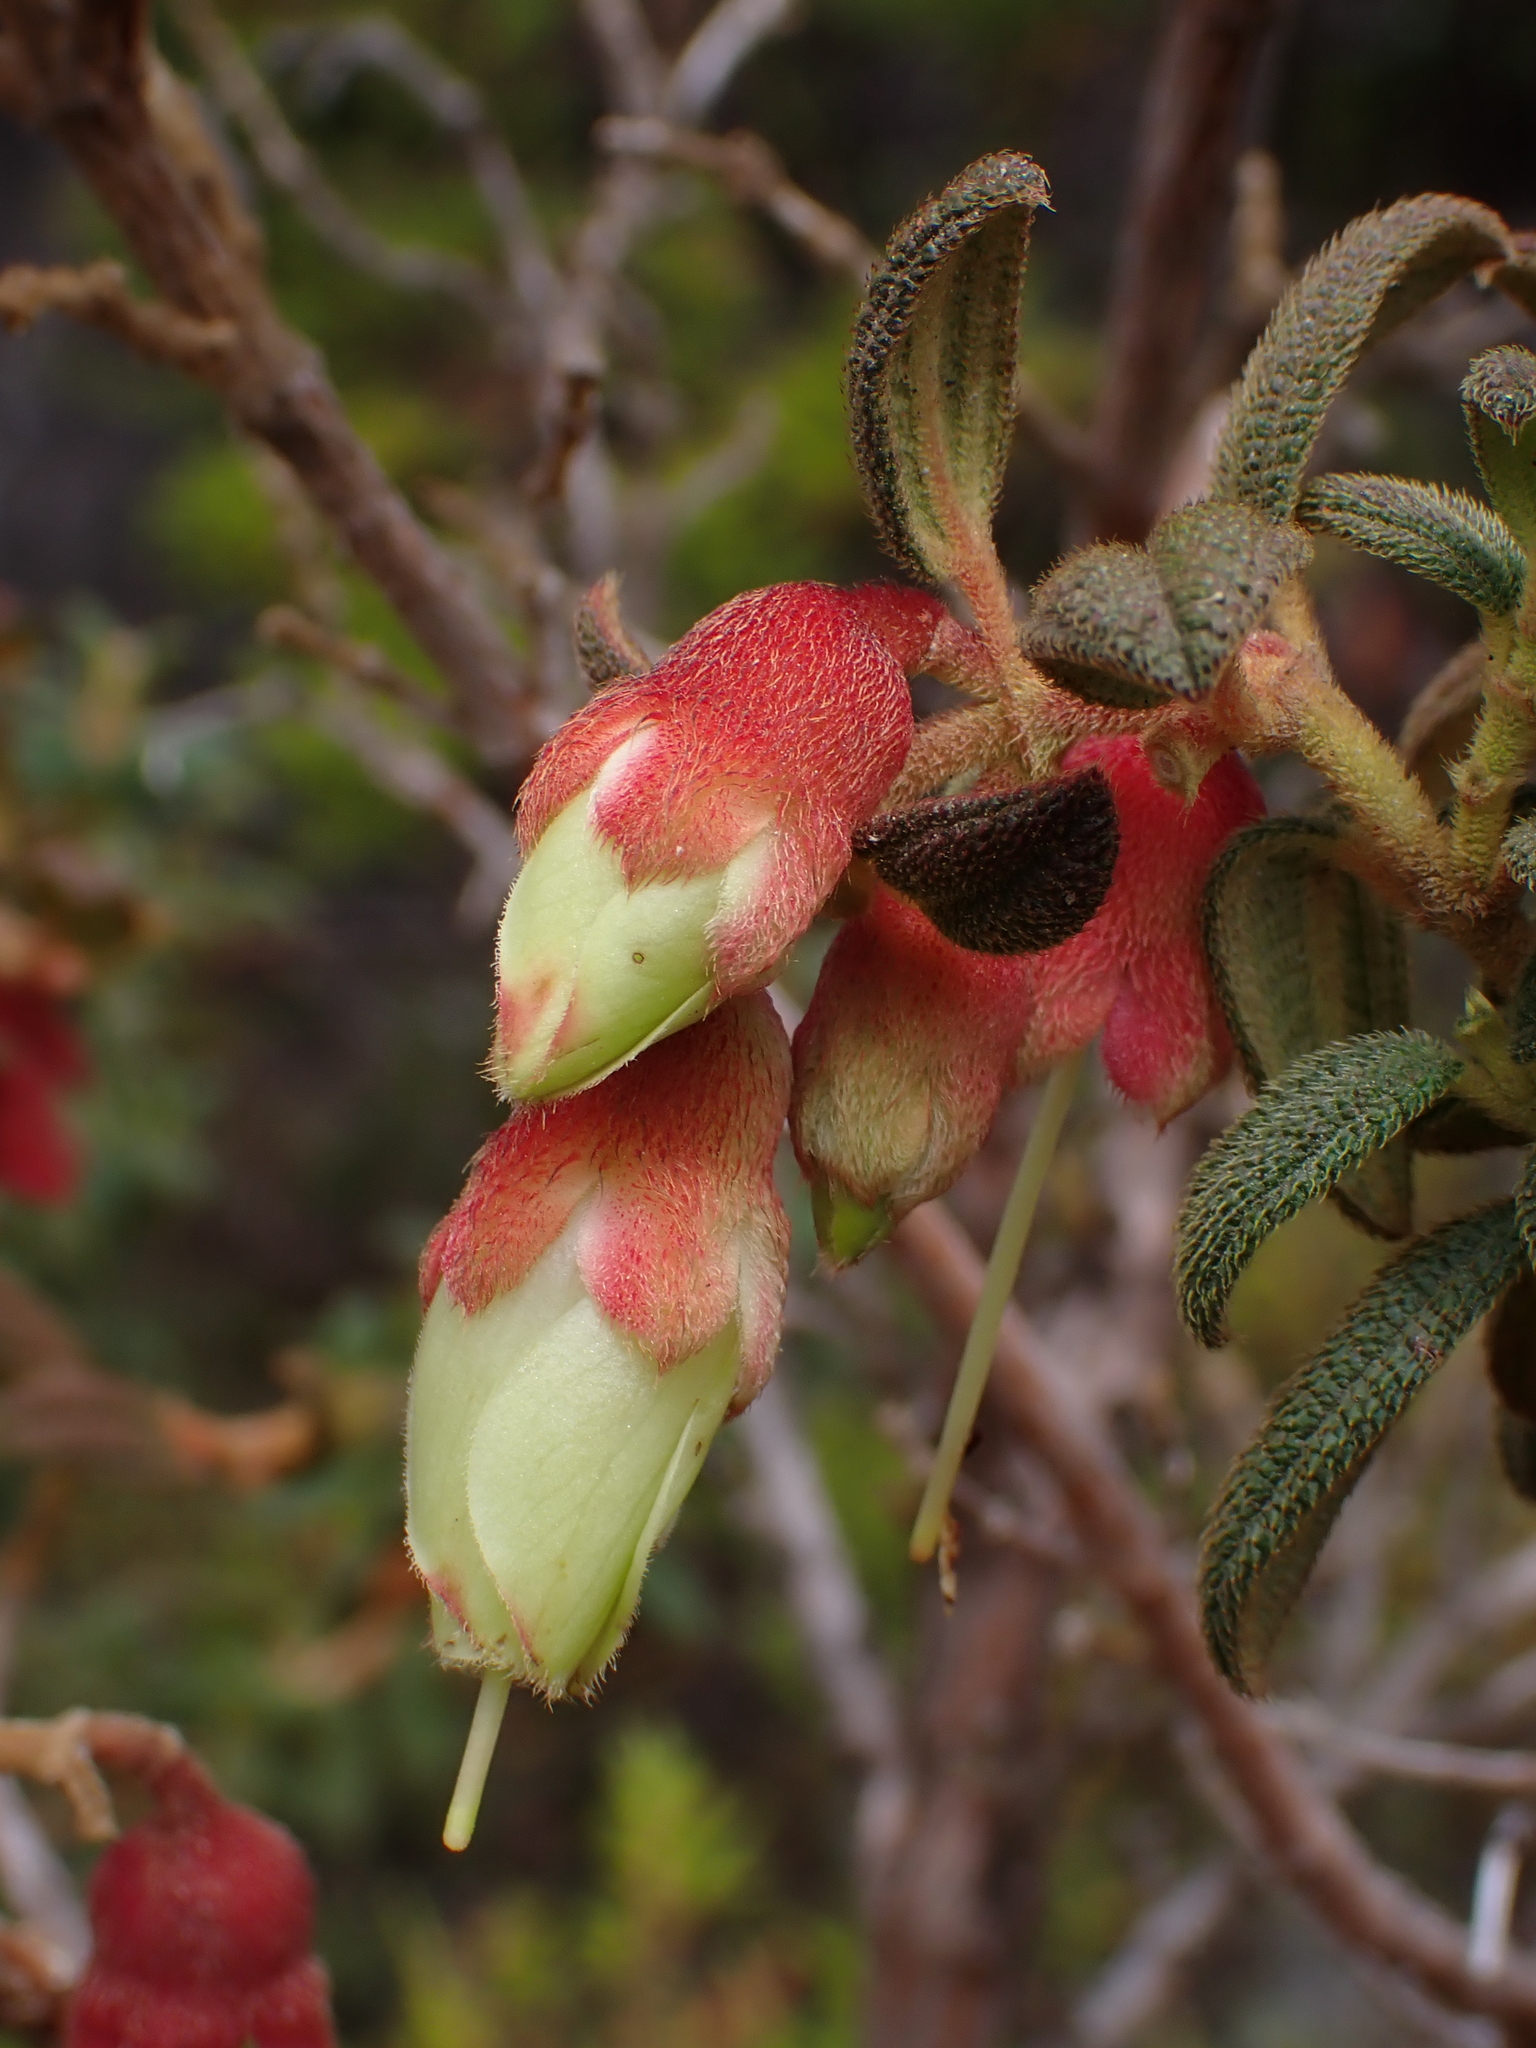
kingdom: Plantae
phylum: Tracheophyta
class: Magnoliopsida
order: Myrtales
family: Melastomataceae
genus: Brachyotum
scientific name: Brachyotum ledifolium
